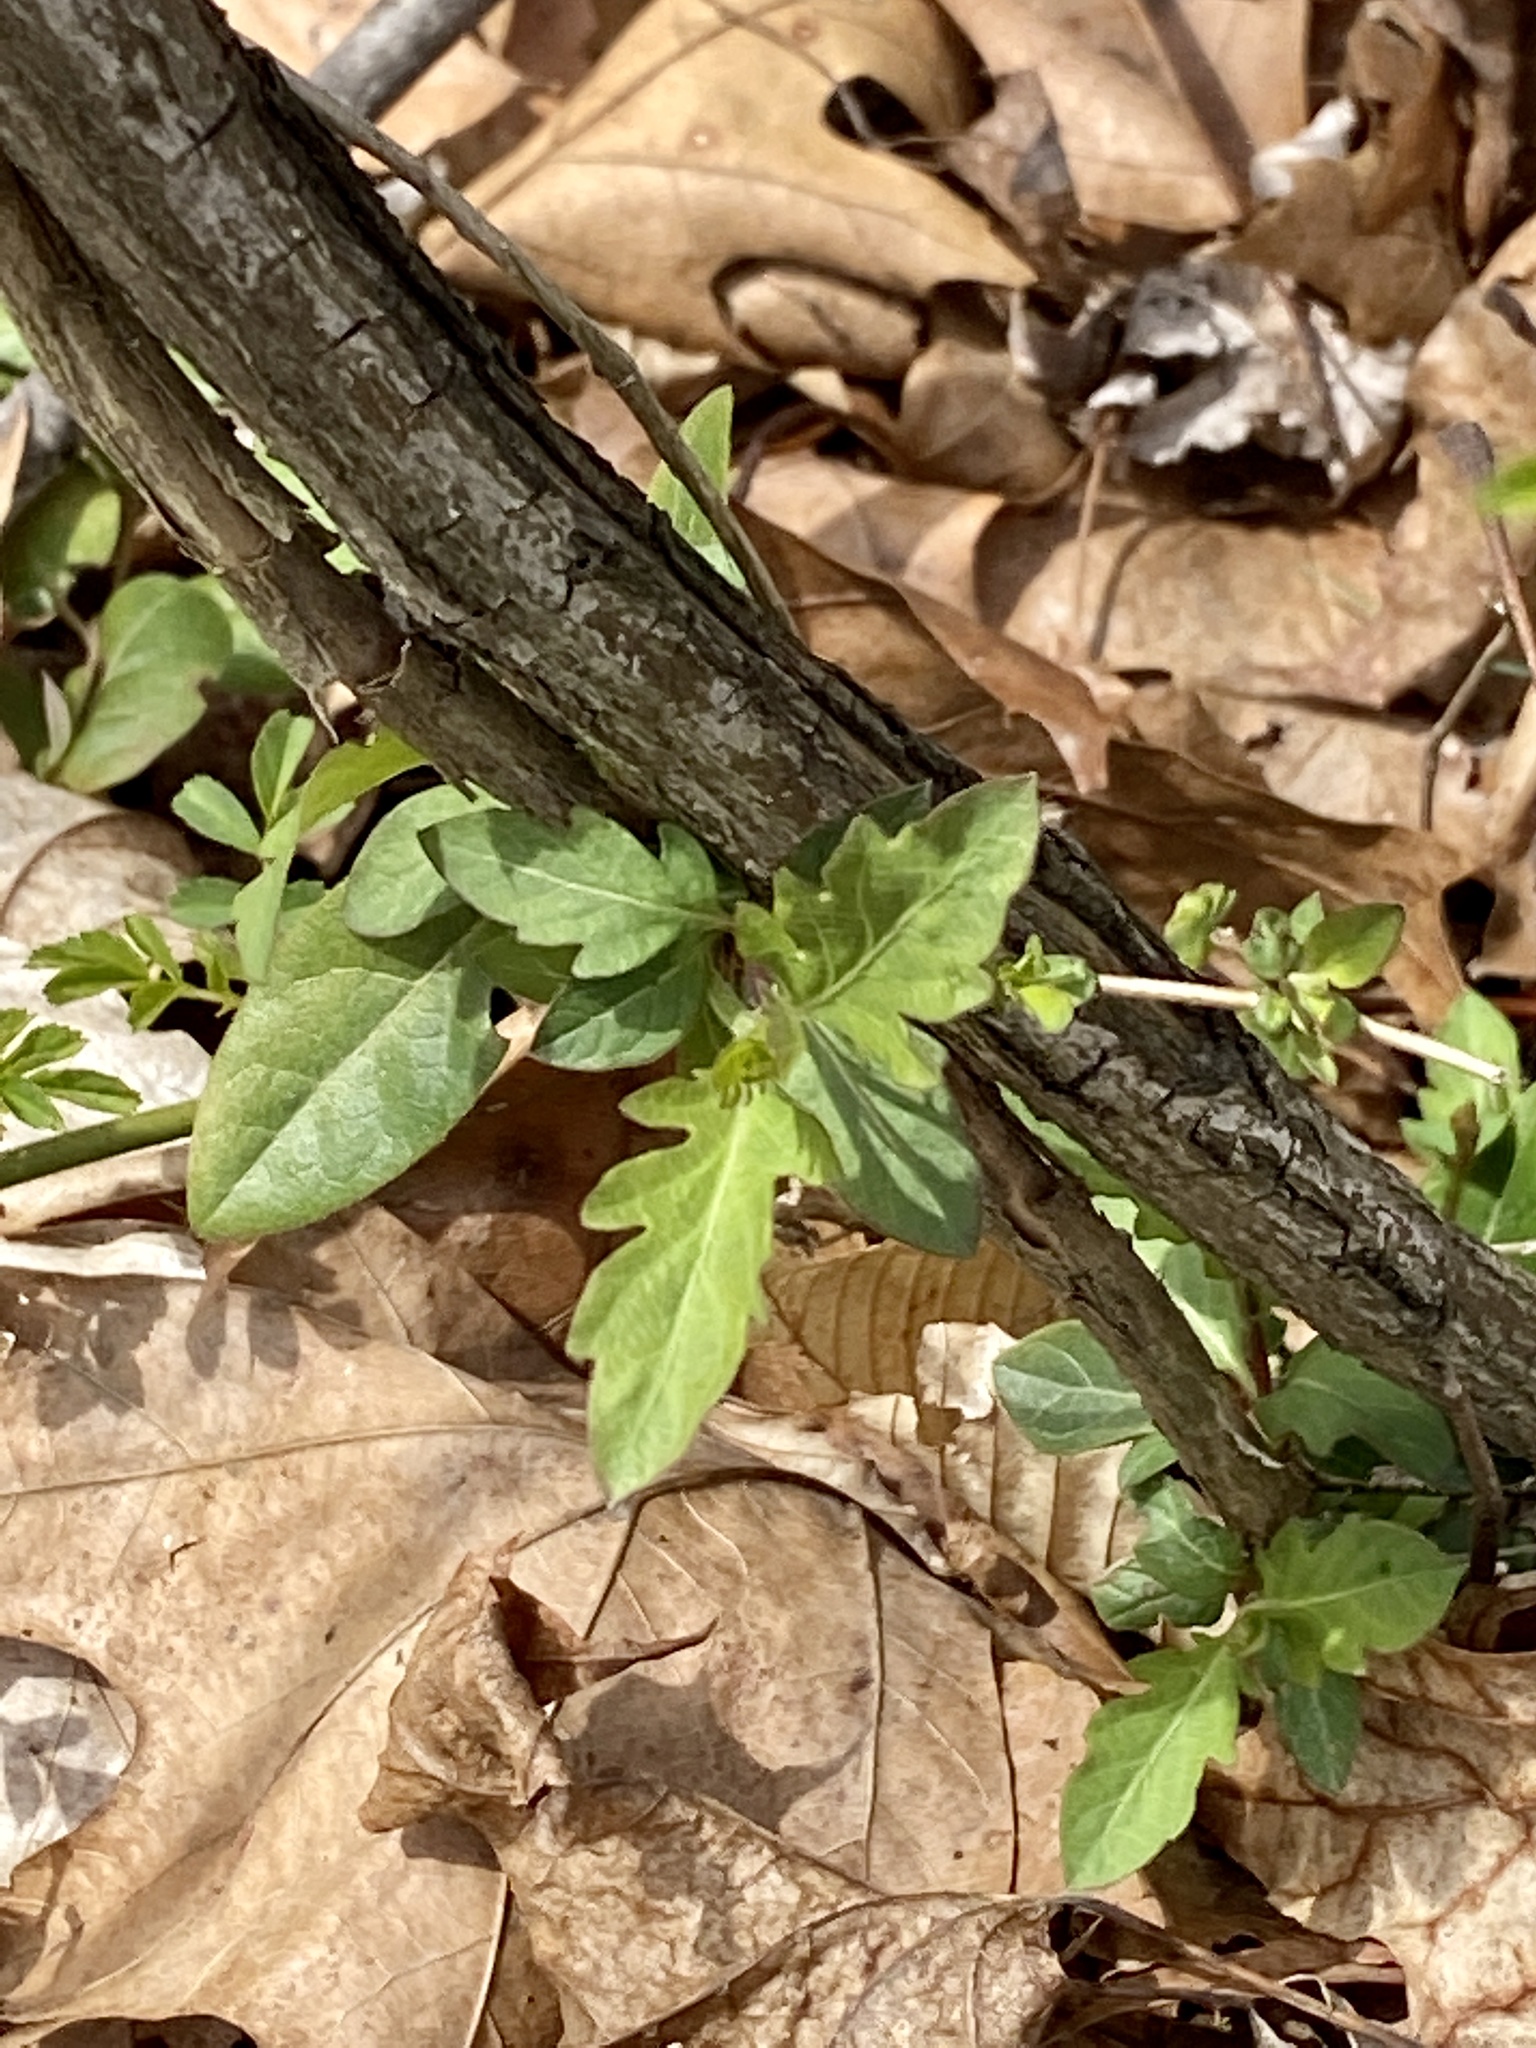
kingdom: Plantae
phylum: Tracheophyta
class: Magnoliopsida
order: Dipsacales
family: Caprifoliaceae
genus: Lonicera
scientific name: Lonicera japonica
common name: Japanese honeysuckle
